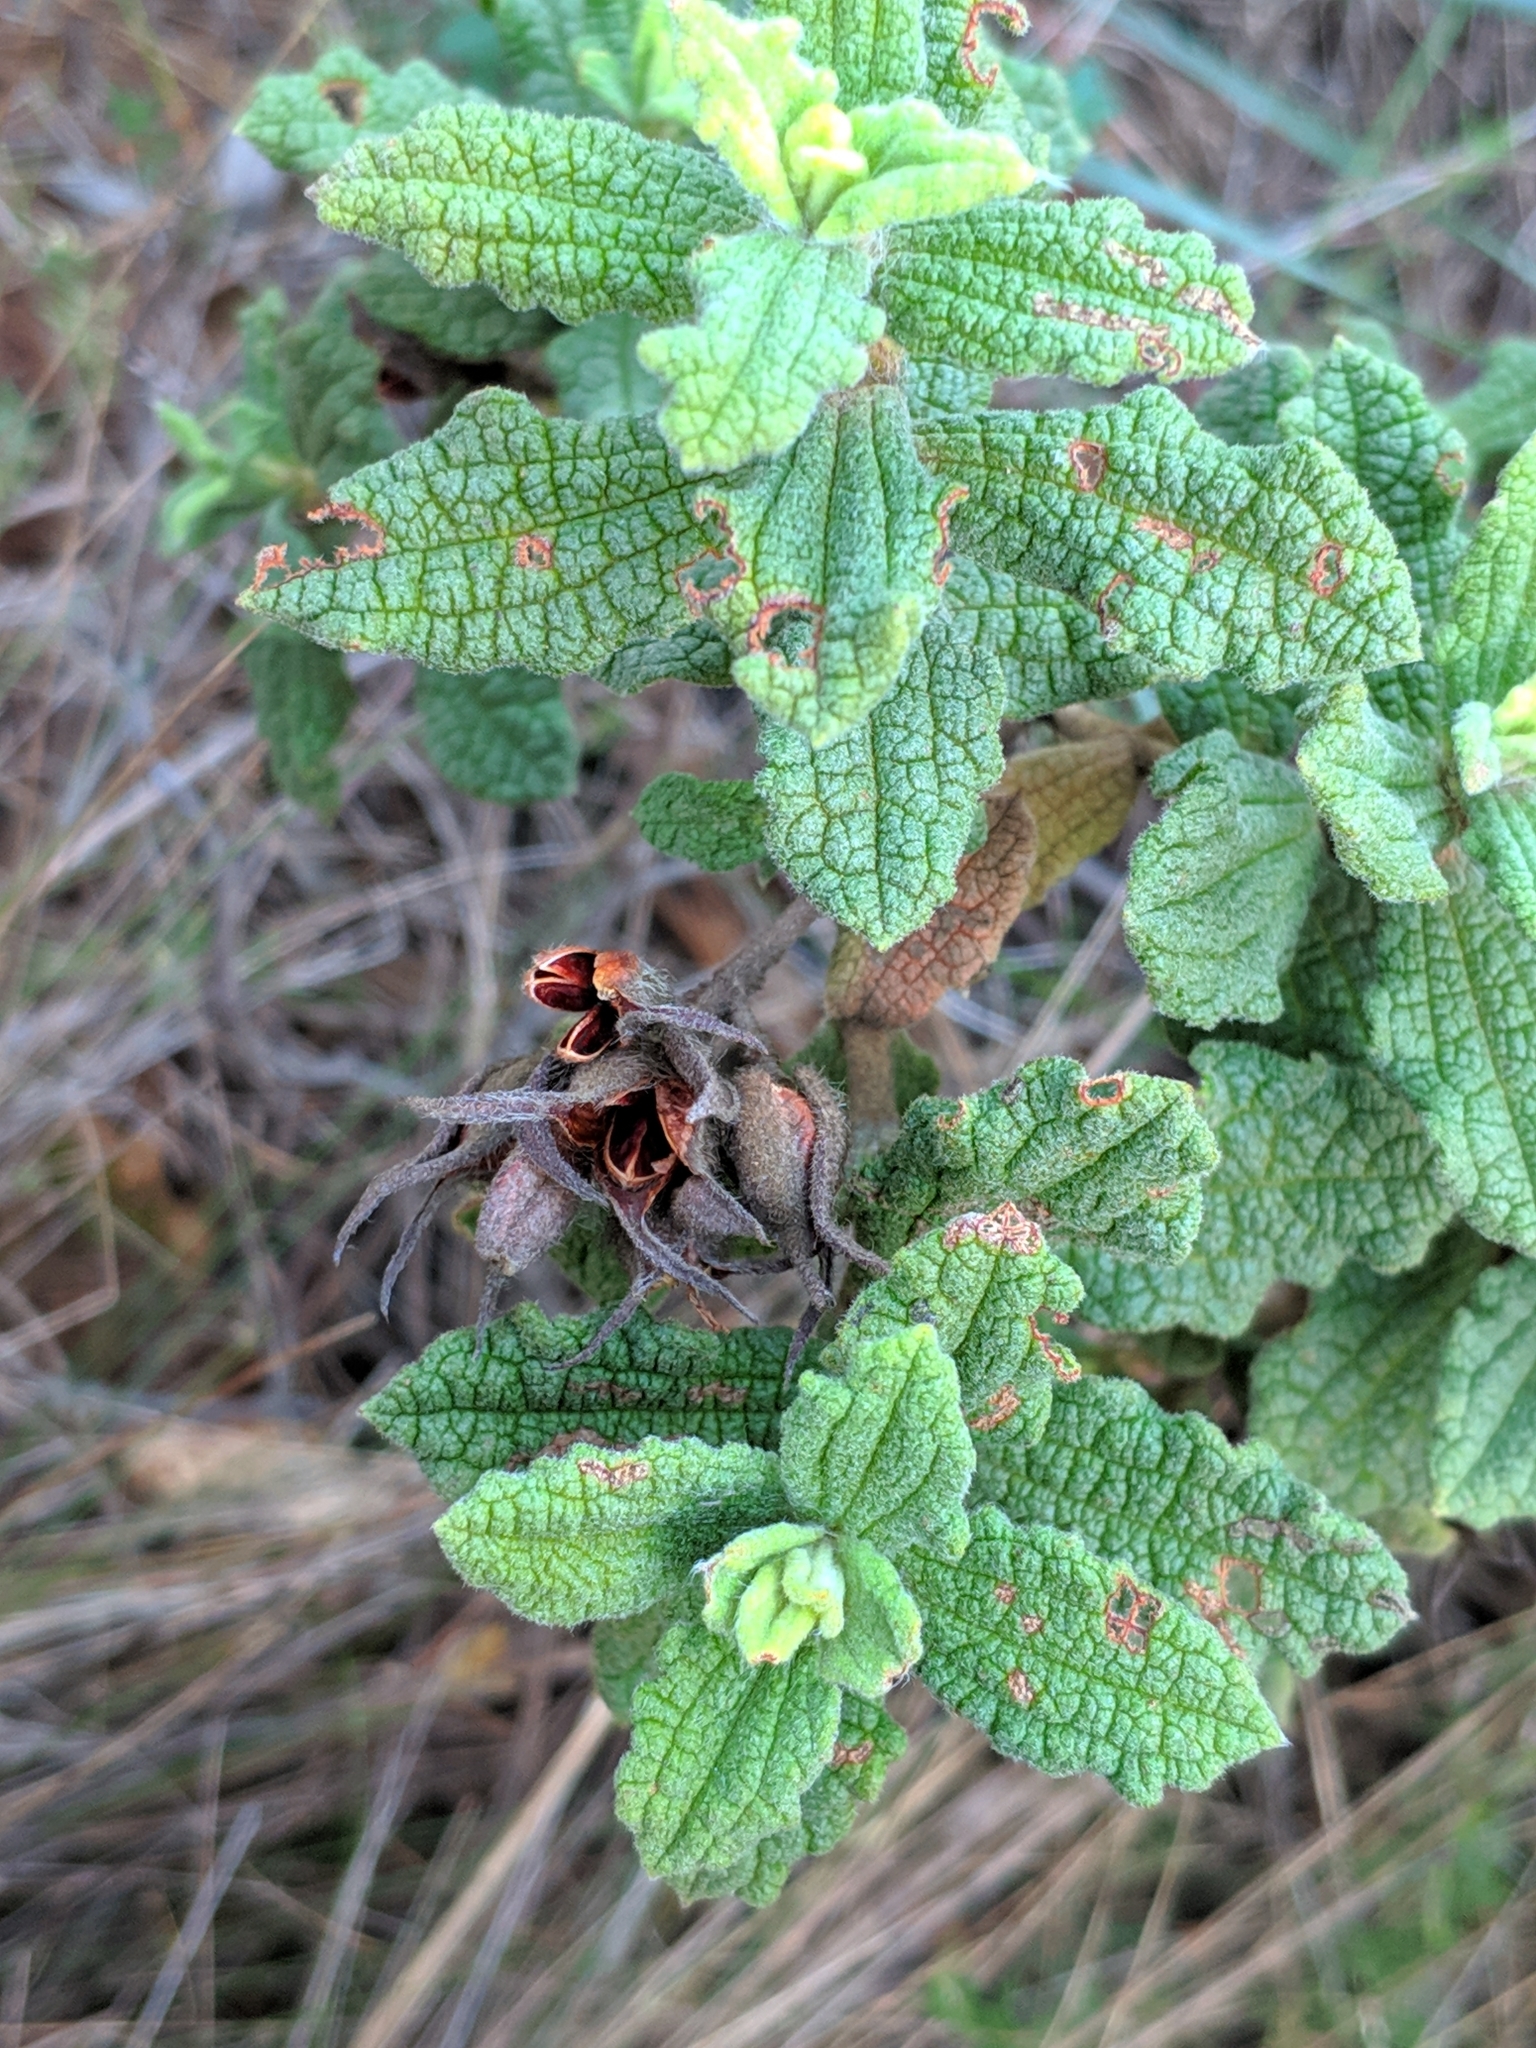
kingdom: Plantae
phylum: Tracheophyta
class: Magnoliopsida
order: Malvales
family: Cistaceae
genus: Cistus
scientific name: Cistus crispus
